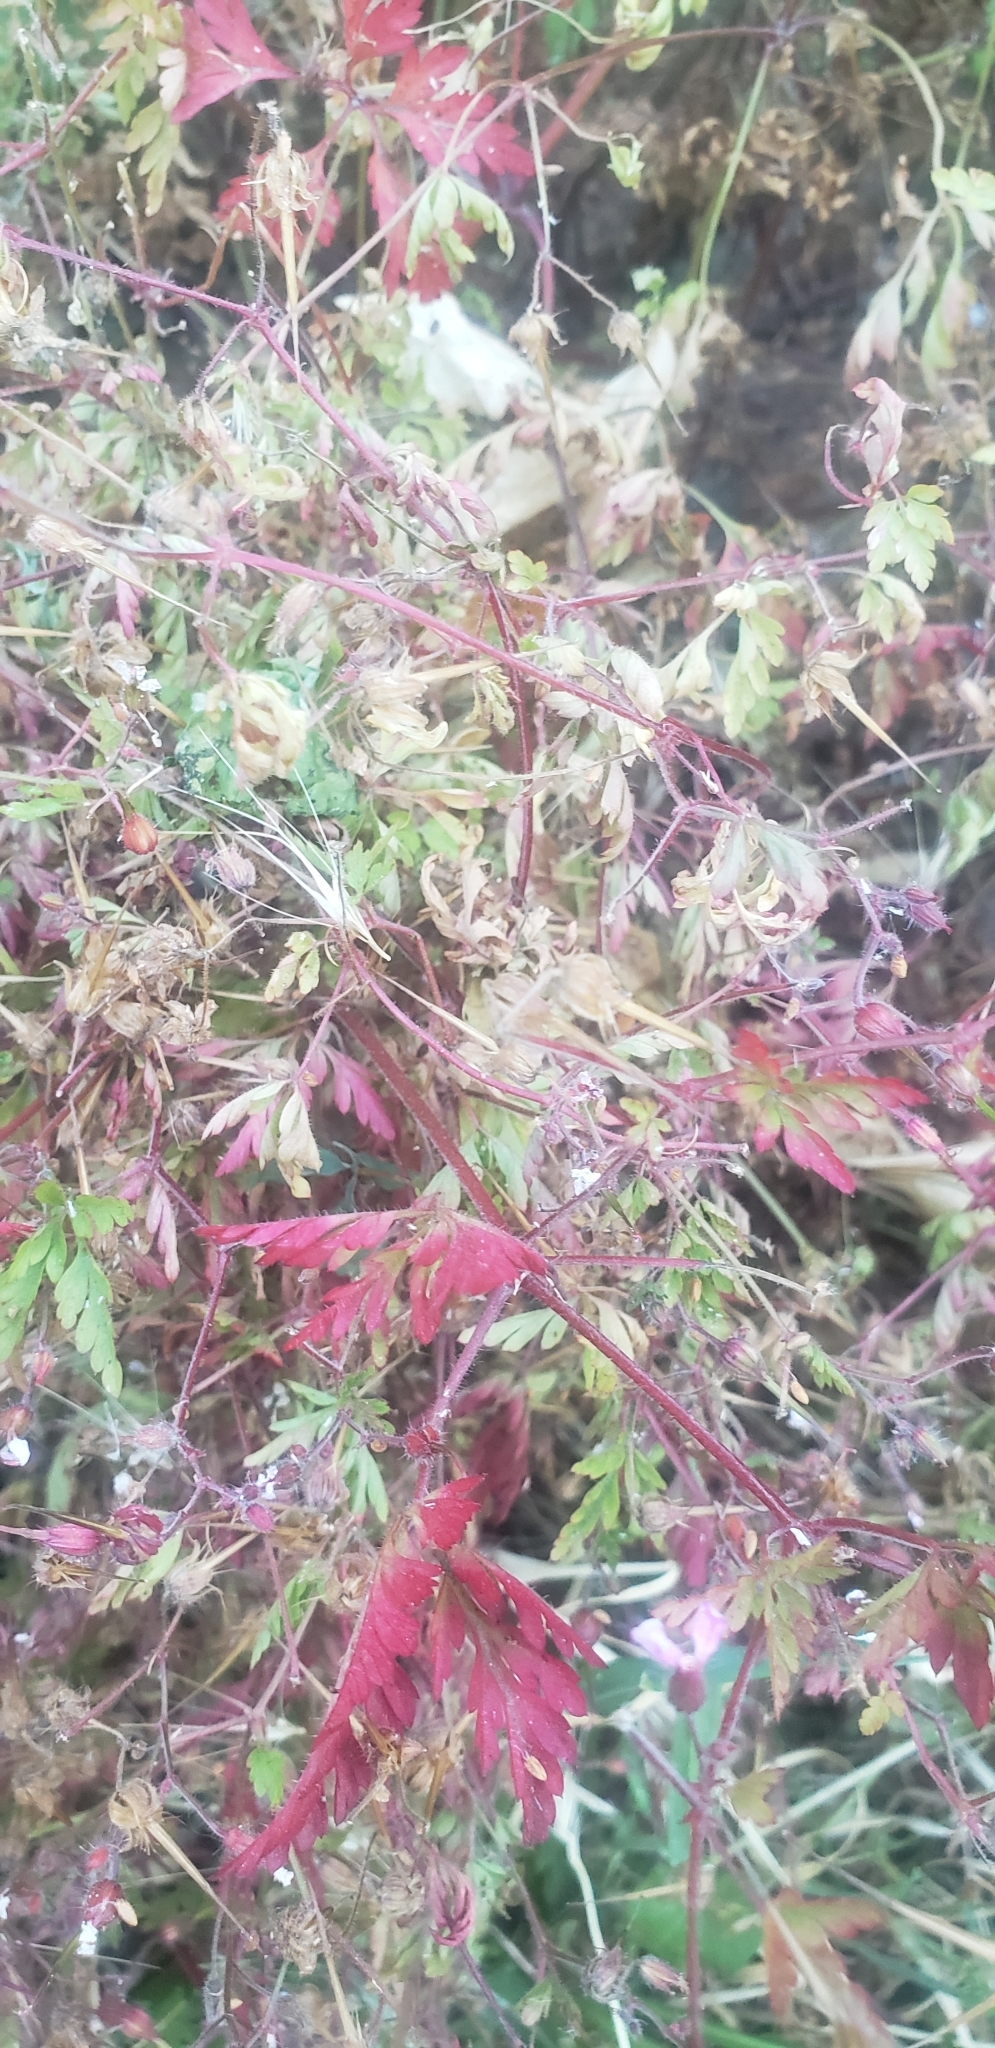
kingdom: Plantae
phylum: Tracheophyta
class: Magnoliopsida
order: Geraniales
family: Geraniaceae
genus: Geranium
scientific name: Geranium robertianum
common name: Herb-robert
